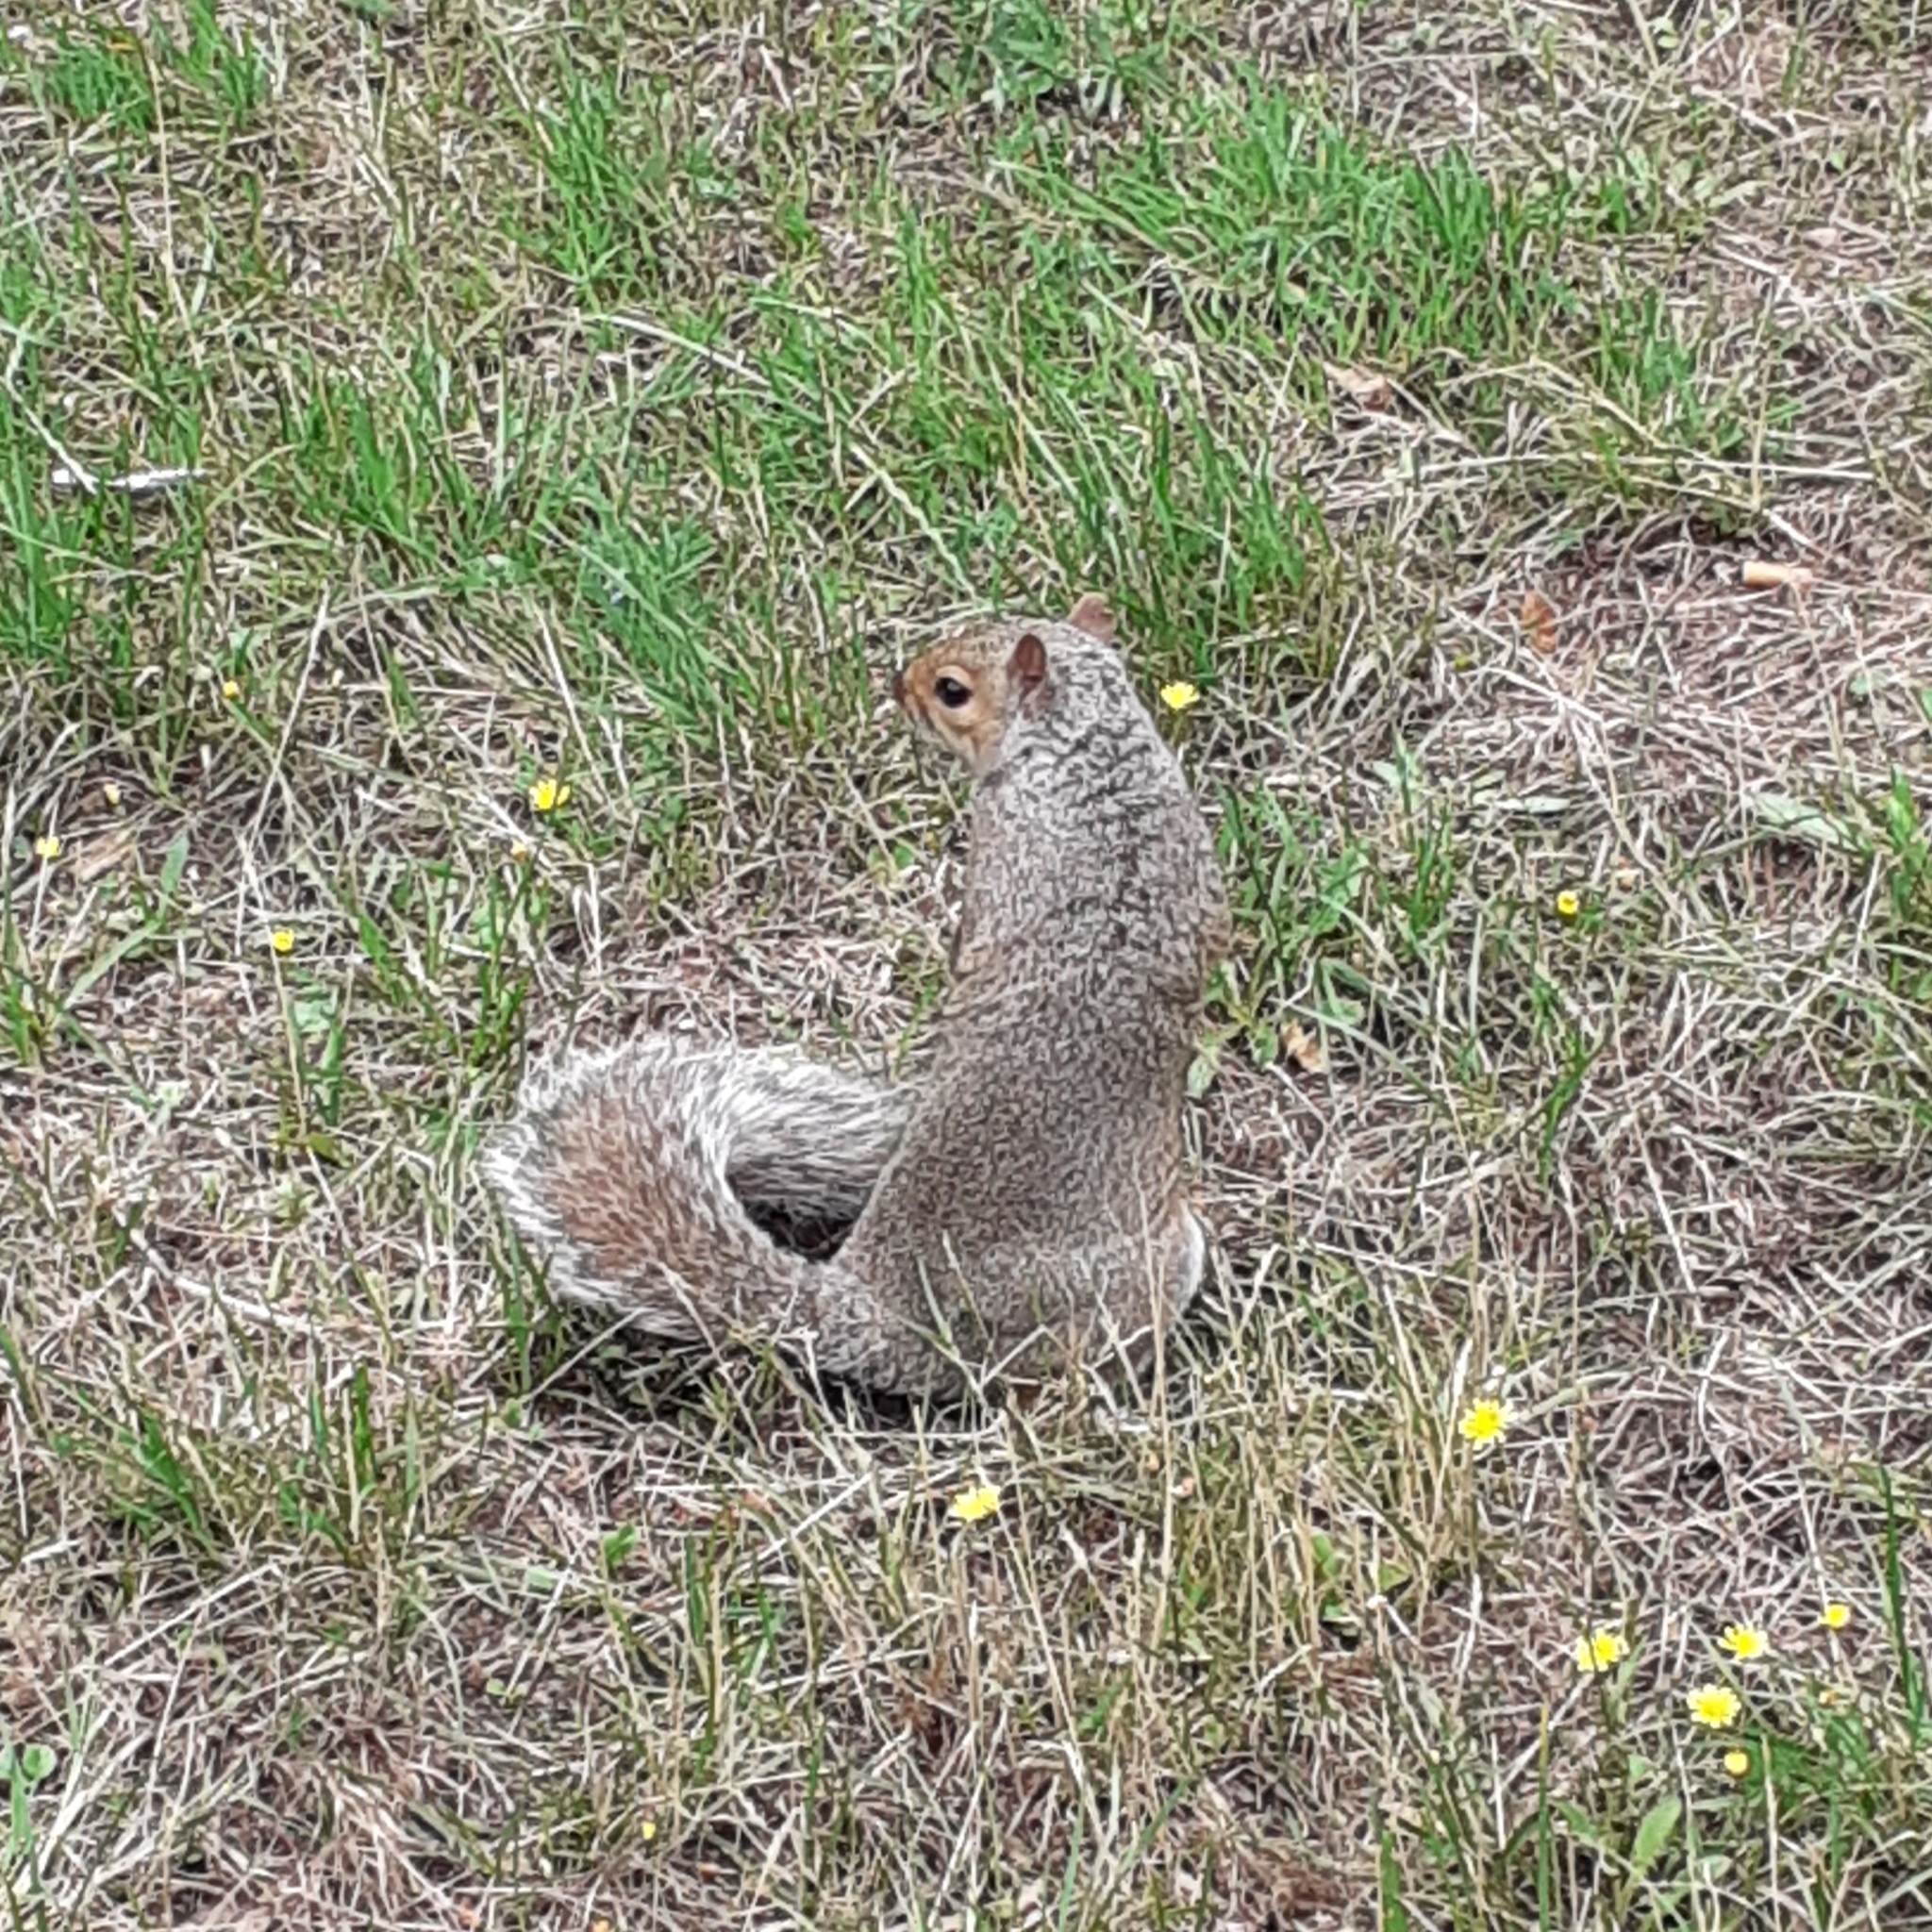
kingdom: Animalia
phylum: Chordata
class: Mammalia
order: Rodentia
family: Sciuridae
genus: Sciurus
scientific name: Sciurus carolinensis
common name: Eastern gray squirrel
